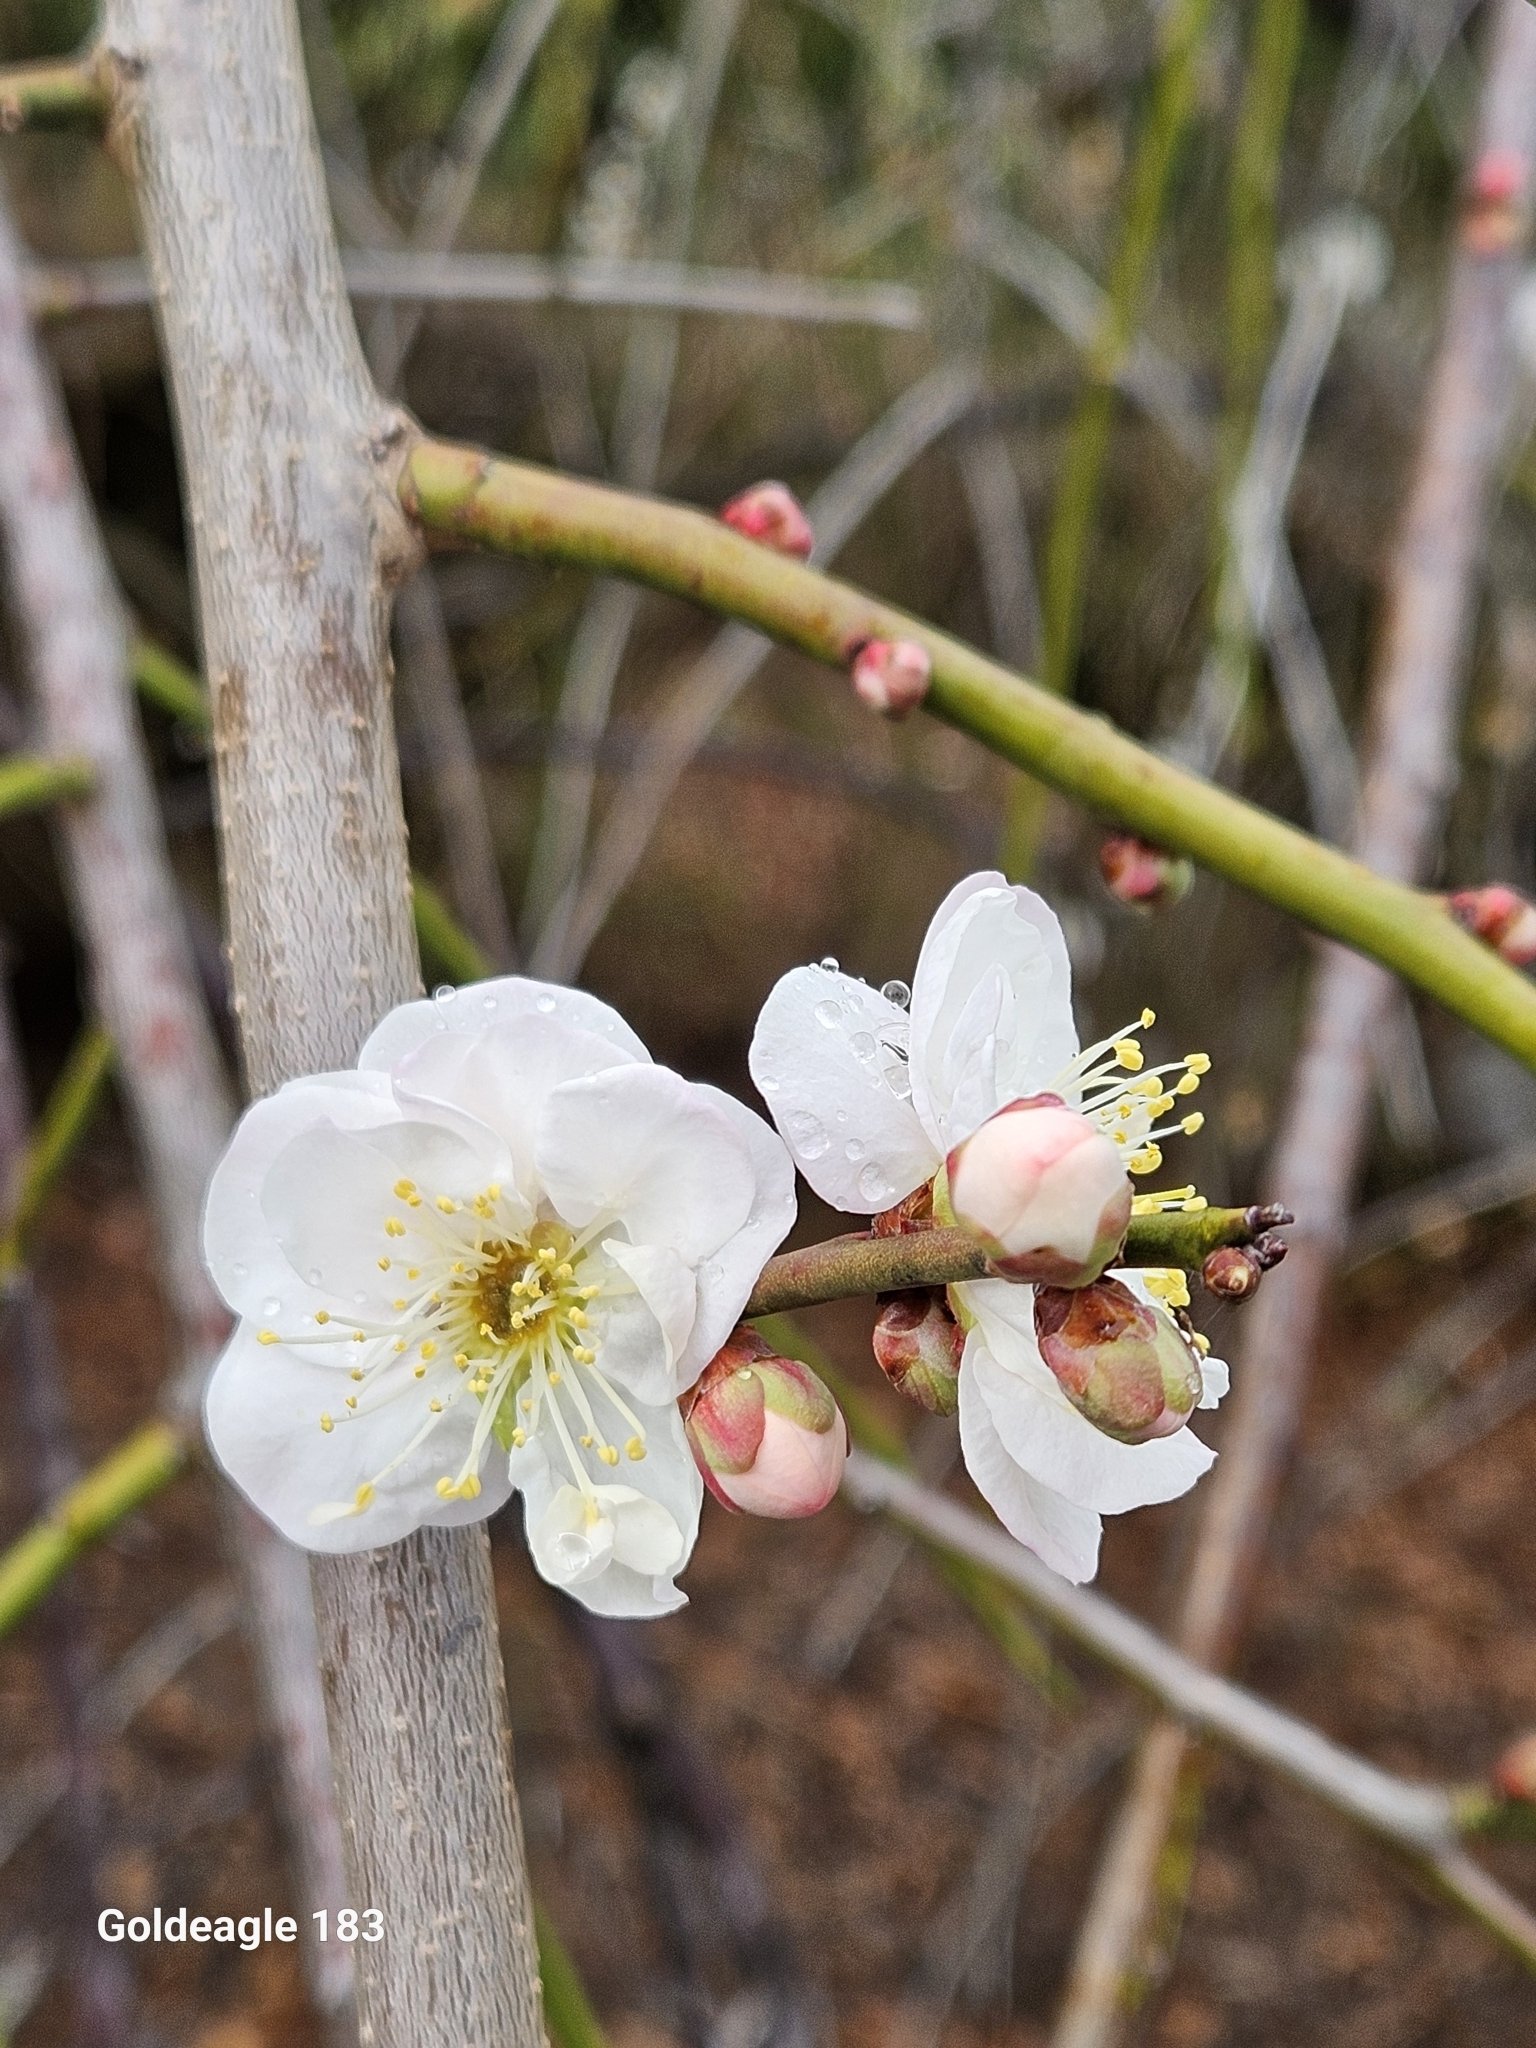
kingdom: Plantae
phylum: Tracheophyta
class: Magnoliopsida
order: Rosales
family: Rosaceae
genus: Prunus
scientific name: Prunus mume
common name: Japanese apricot
